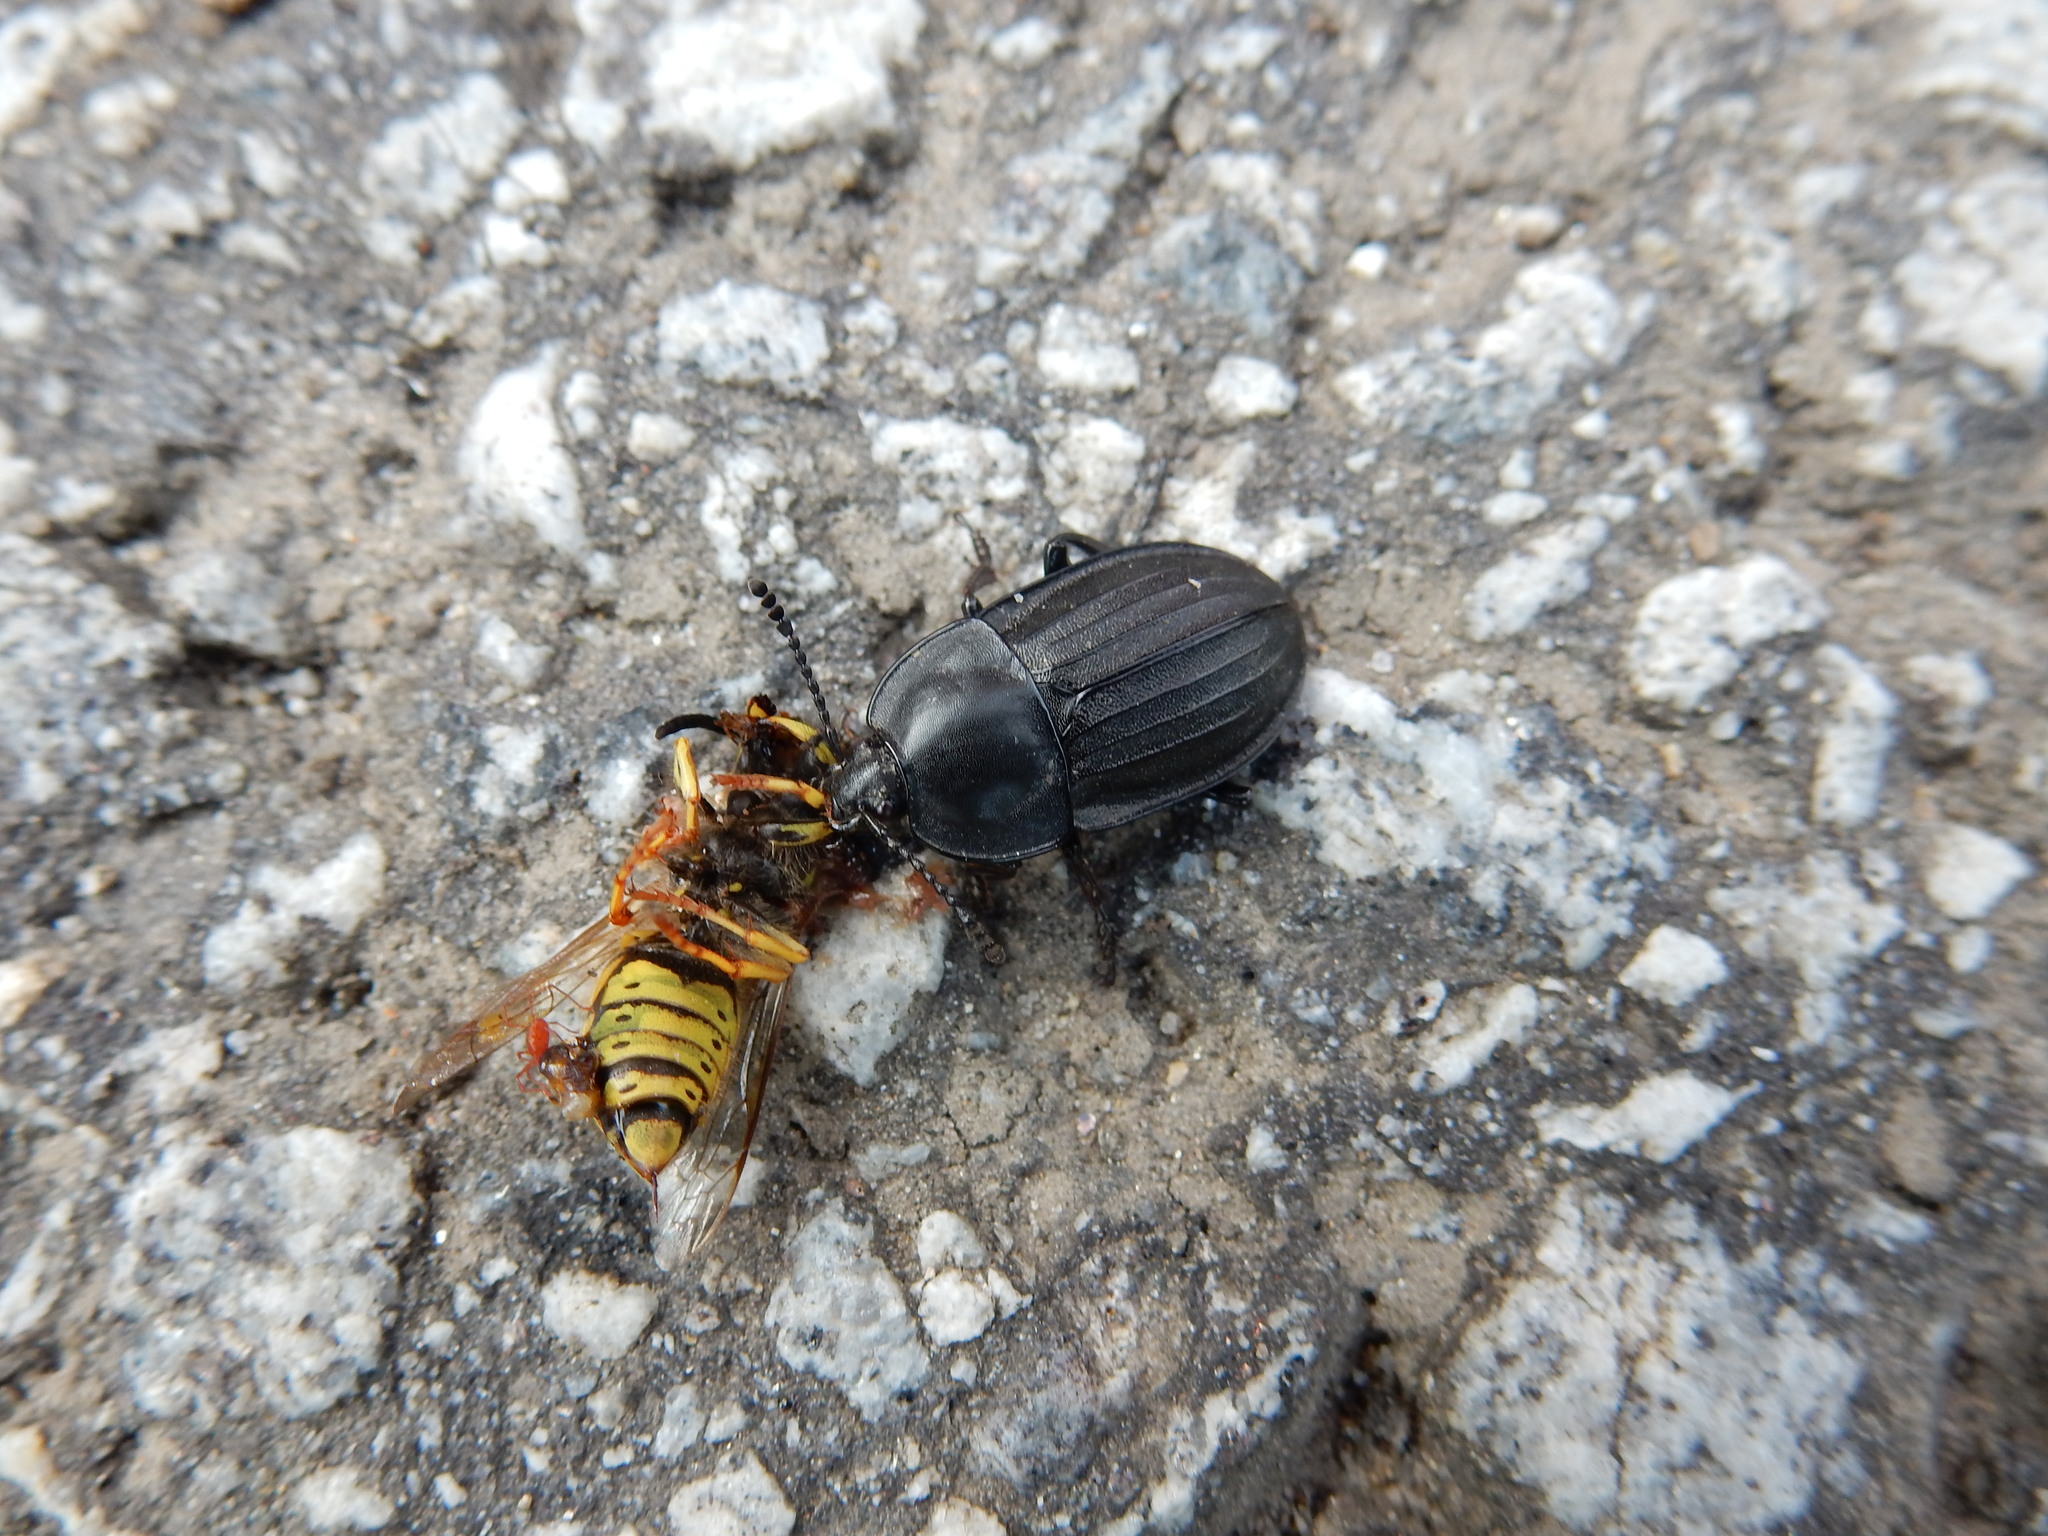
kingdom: Animalia
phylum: Arthropoda
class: Insecta
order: Coleoptera
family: Staphylinidae
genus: Silpha
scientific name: Silpha carinata
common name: Silphid beetle
